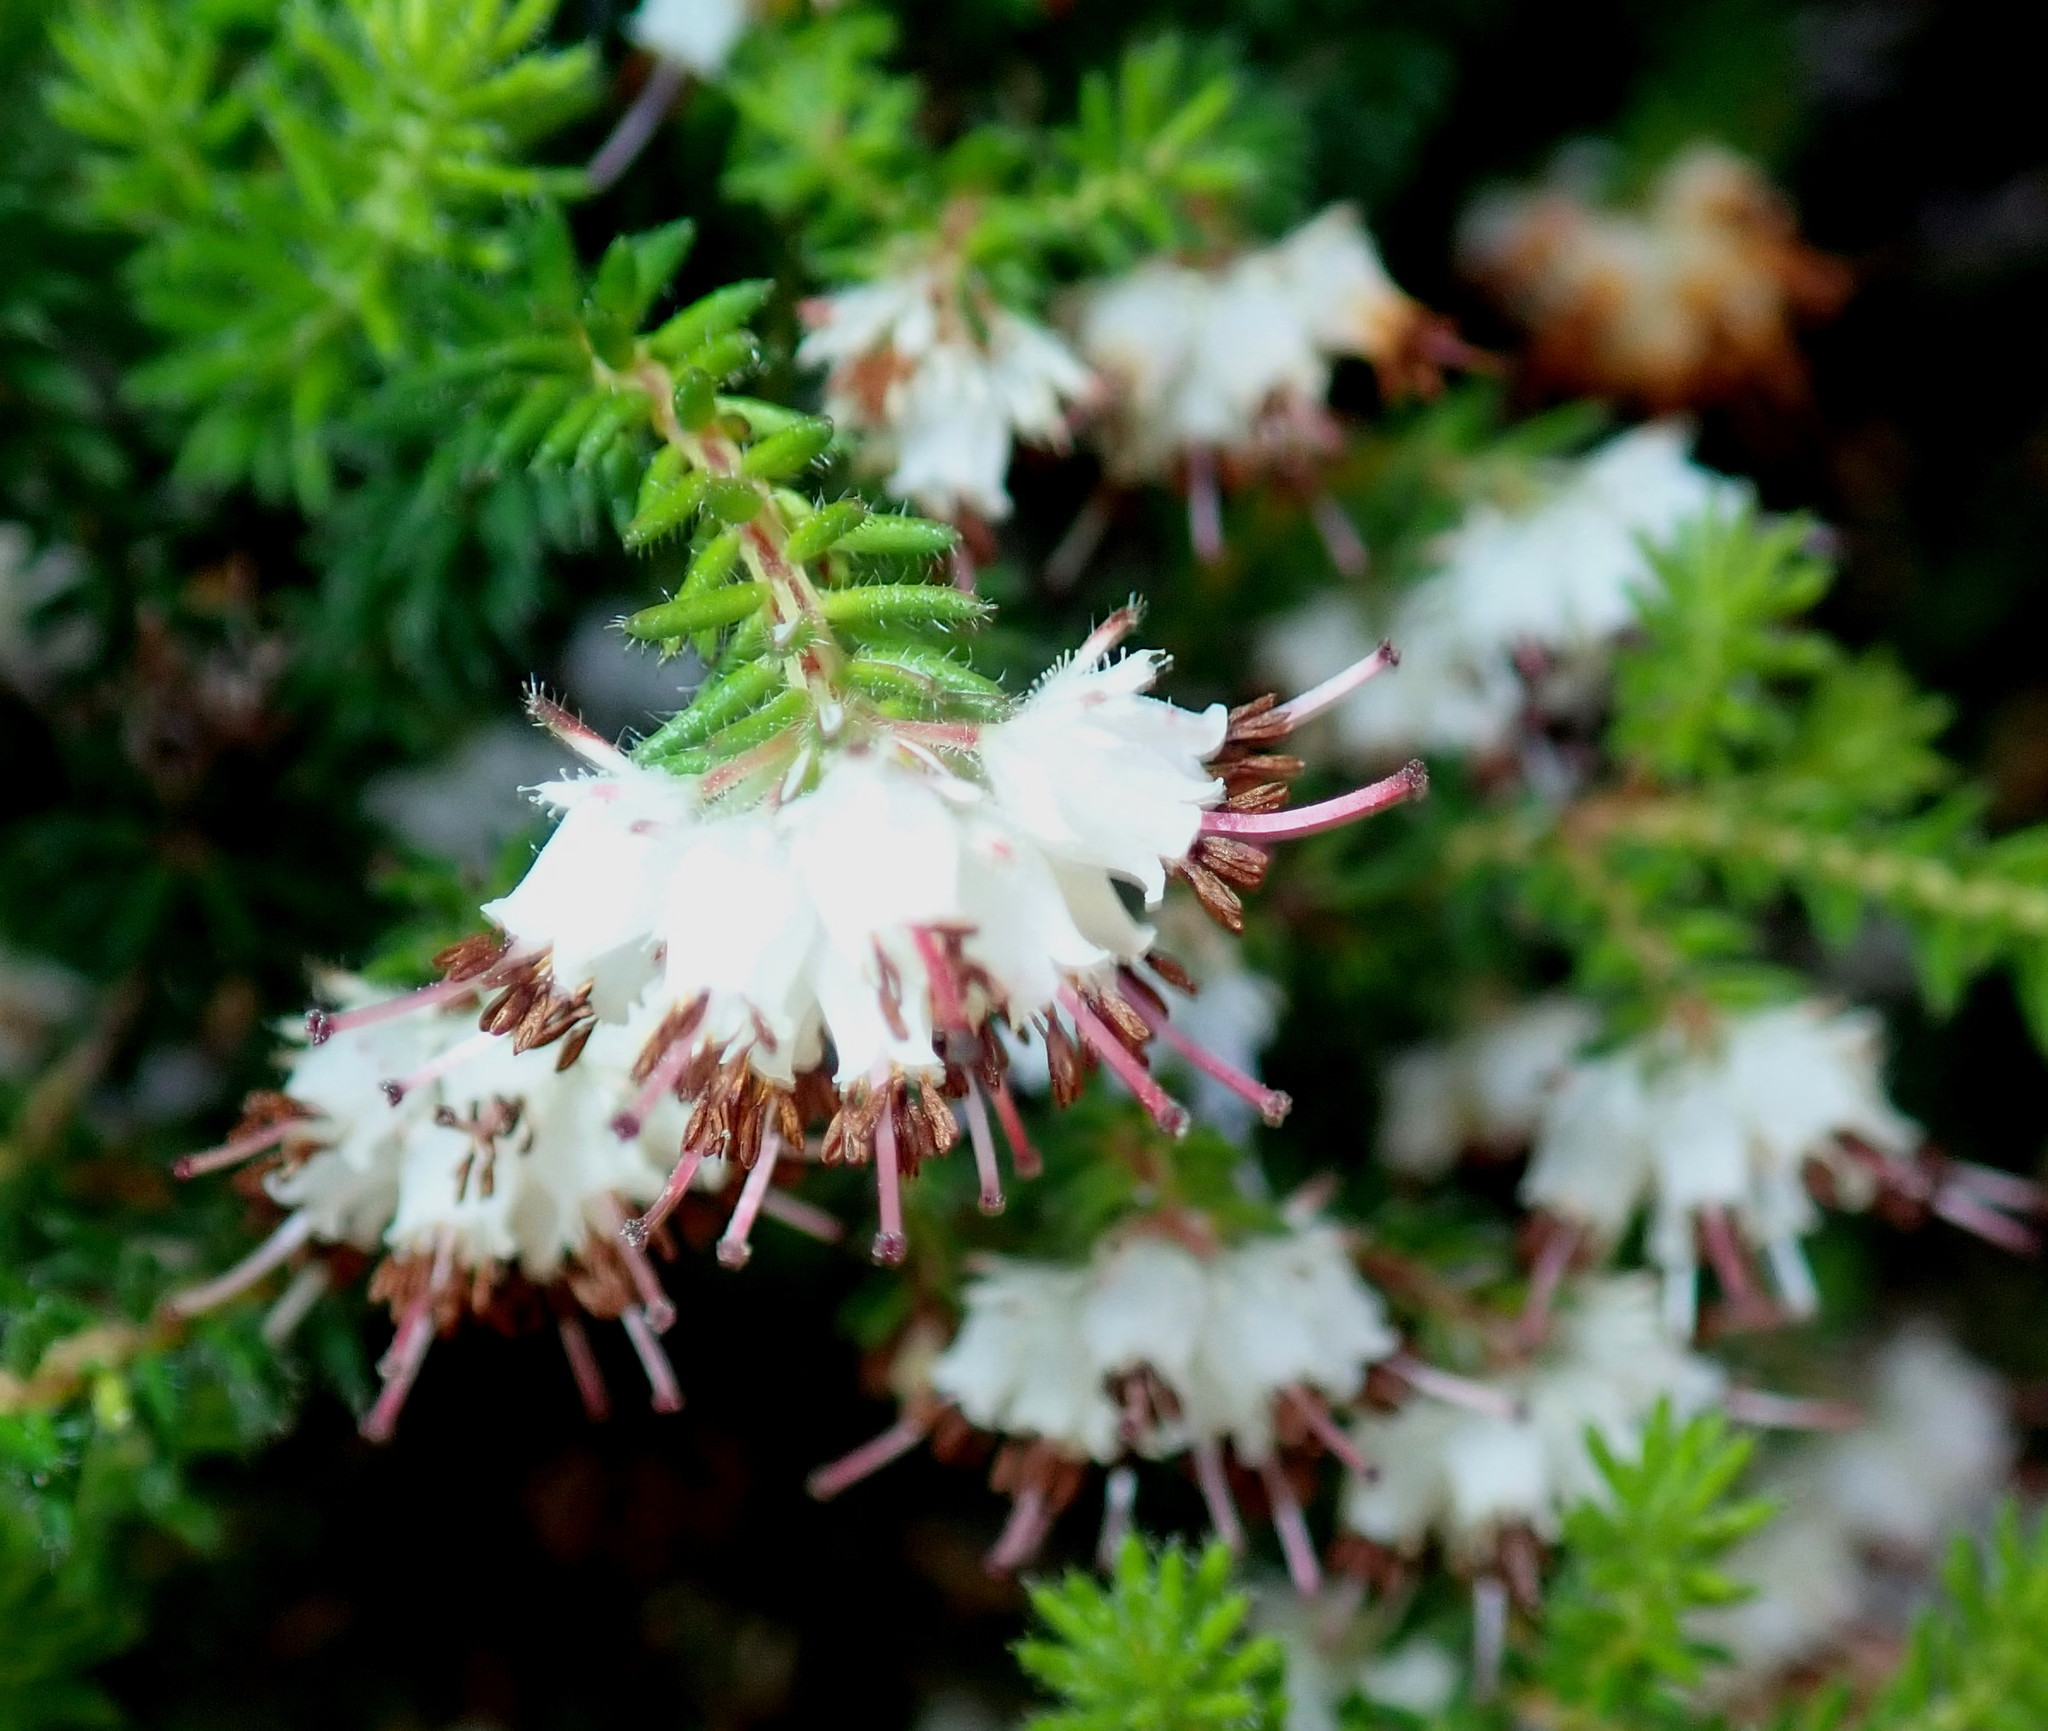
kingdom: Plantae
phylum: Tracheophyta
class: Magnoliopsida
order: Ericales
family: Ericaceae
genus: Erica
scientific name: Erica stylaris
